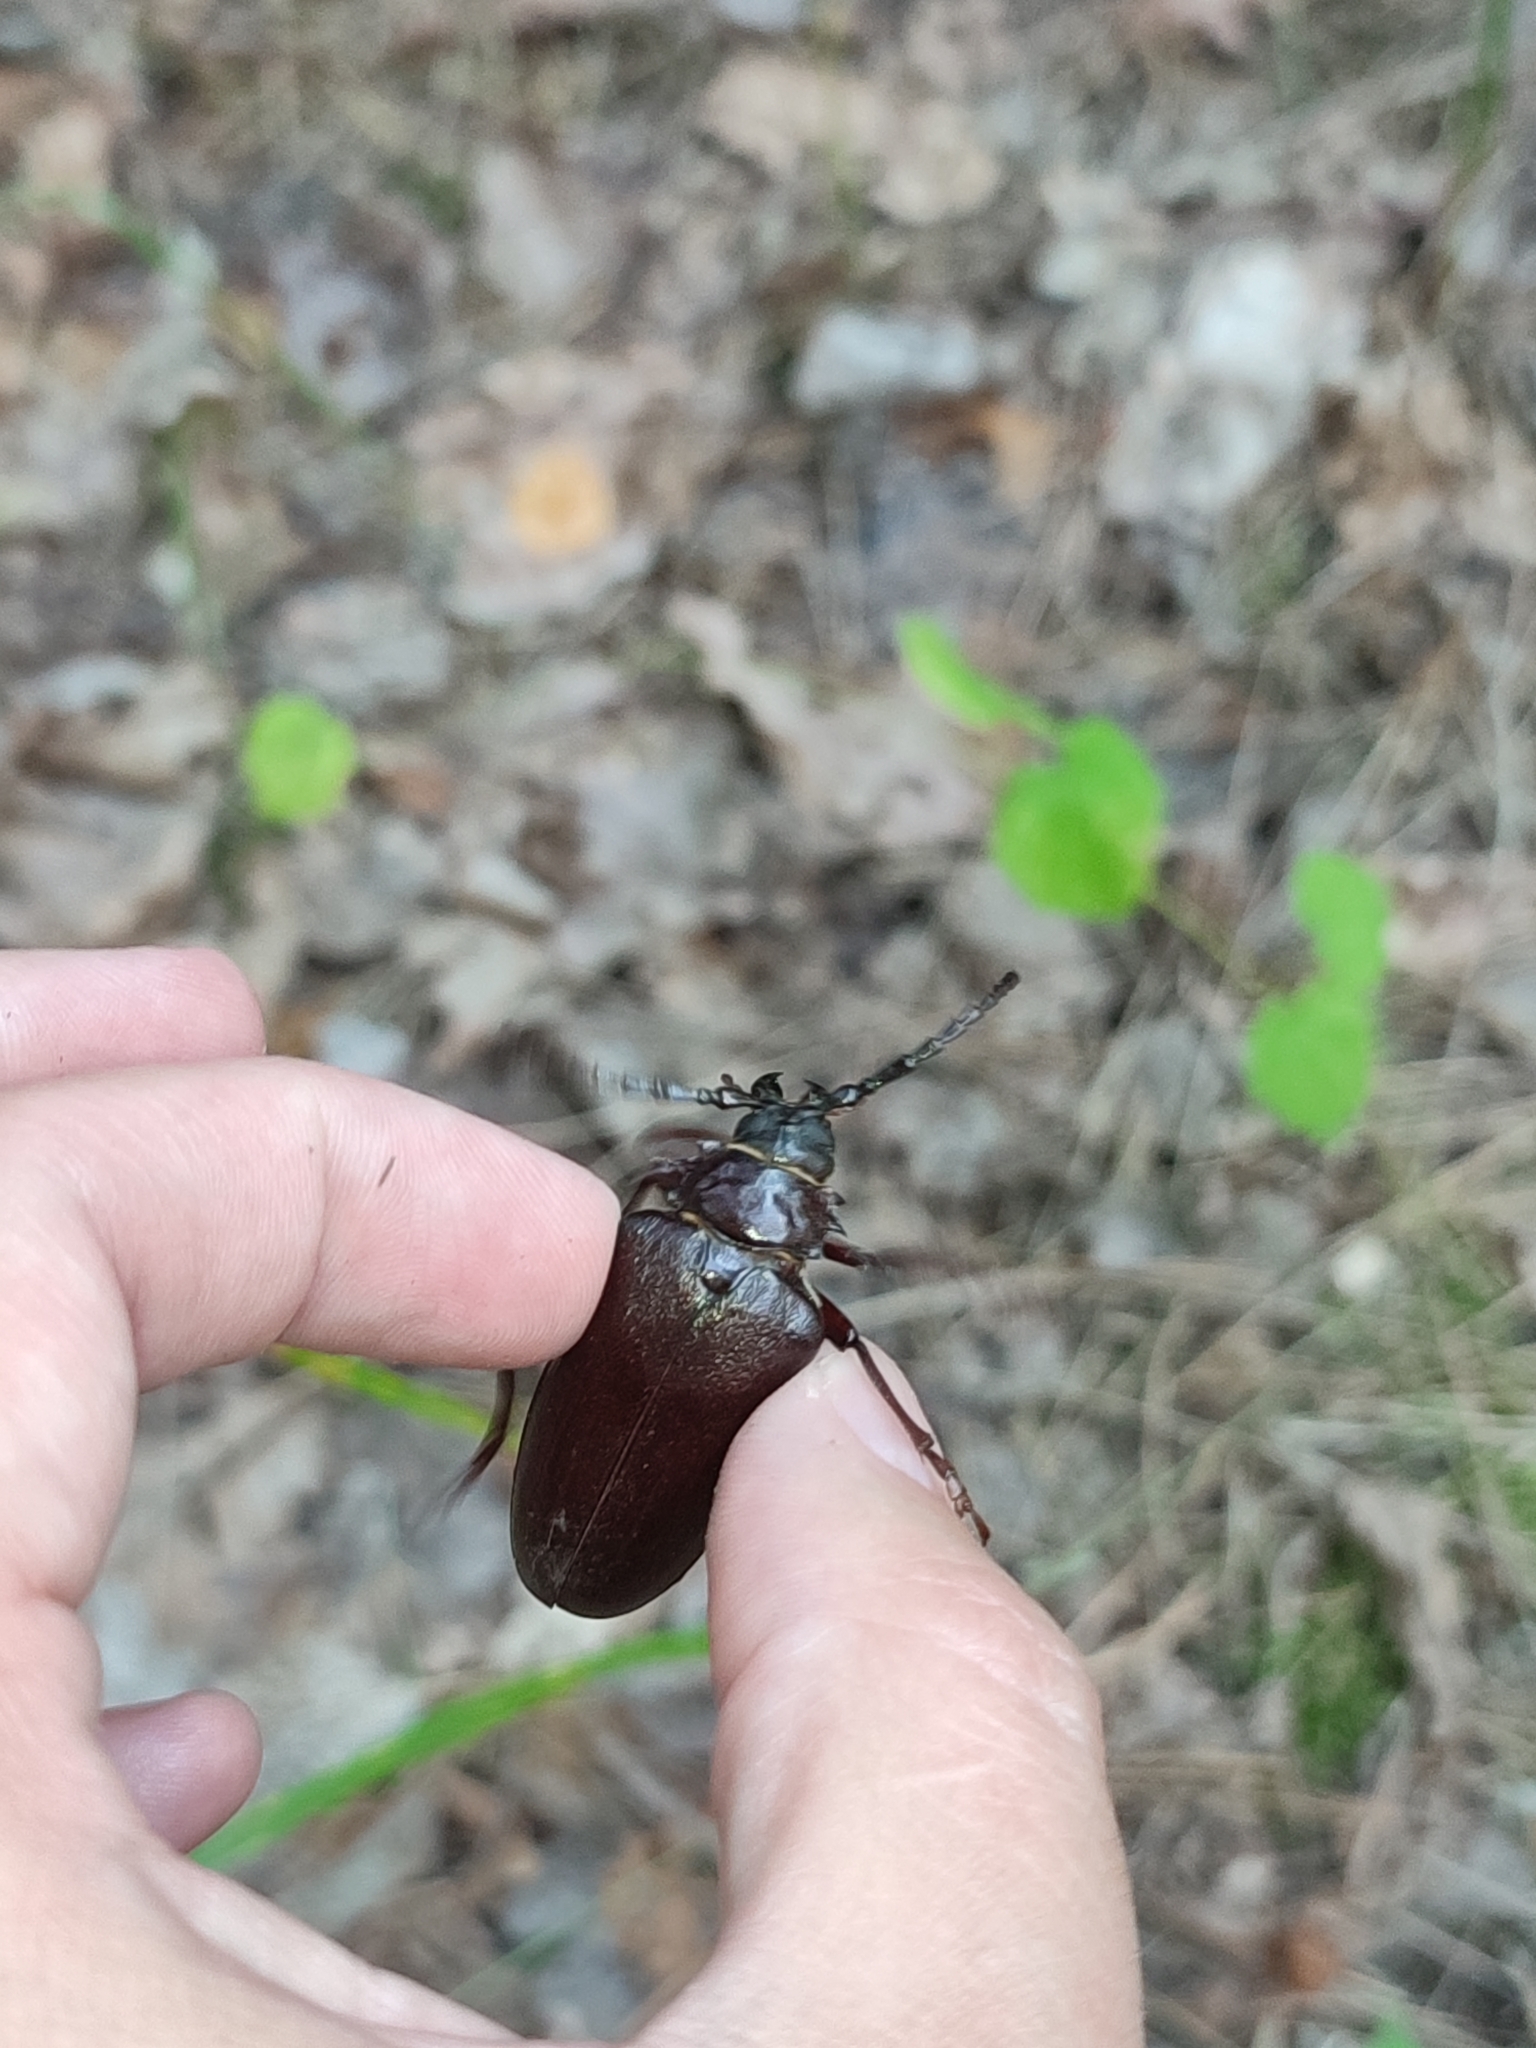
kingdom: Animalia
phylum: Arthropoda
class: Insecta
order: Coleoptera
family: Cerambycidae
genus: Prionus
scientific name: Prionus coriarius
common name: Tanner beetle
